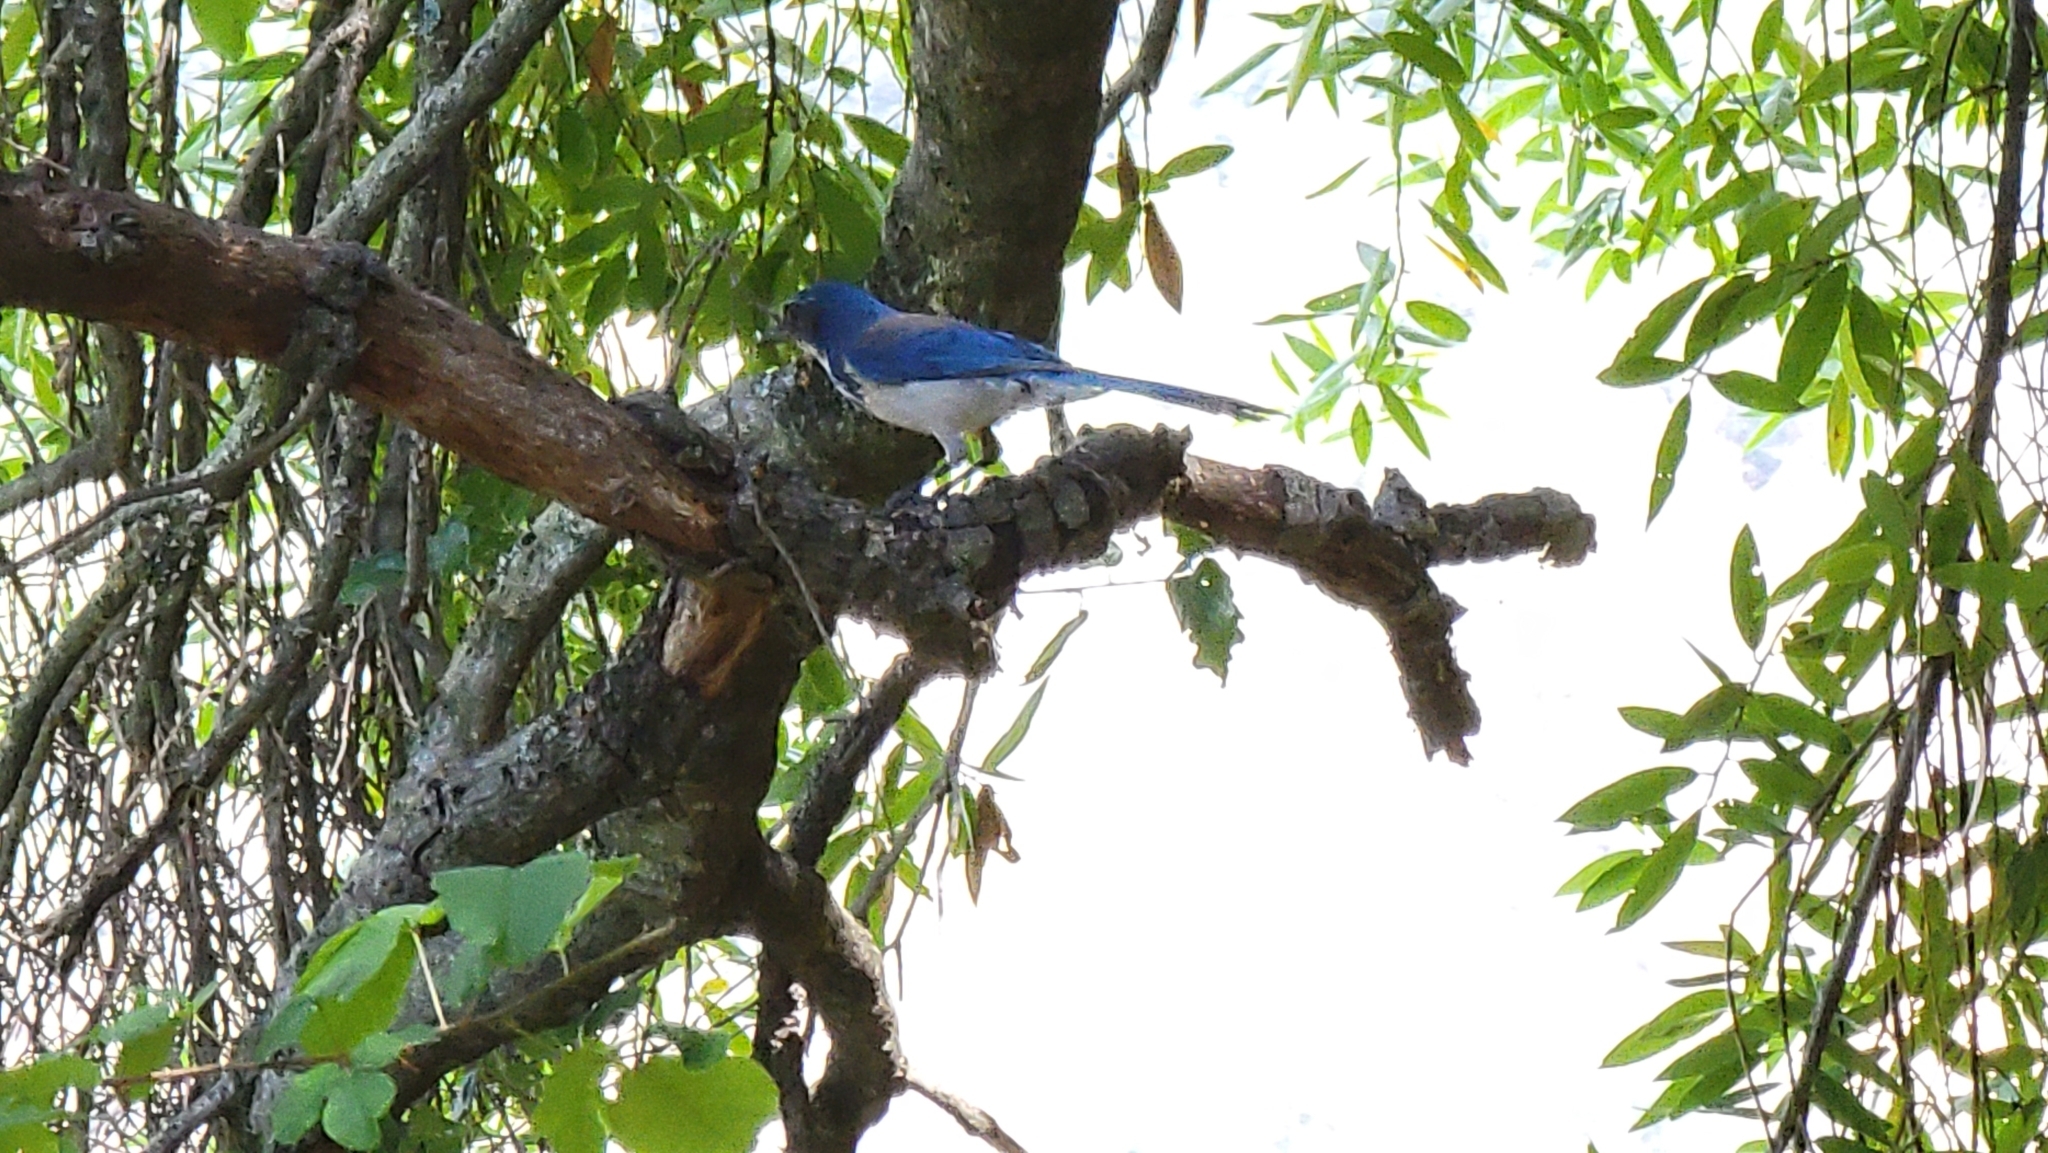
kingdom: Animalia
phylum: Chordata
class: Aves
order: Passeriformes
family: Corvidae
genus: Aphelocoma
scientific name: Aphelocoma californica
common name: California scrub-jay
